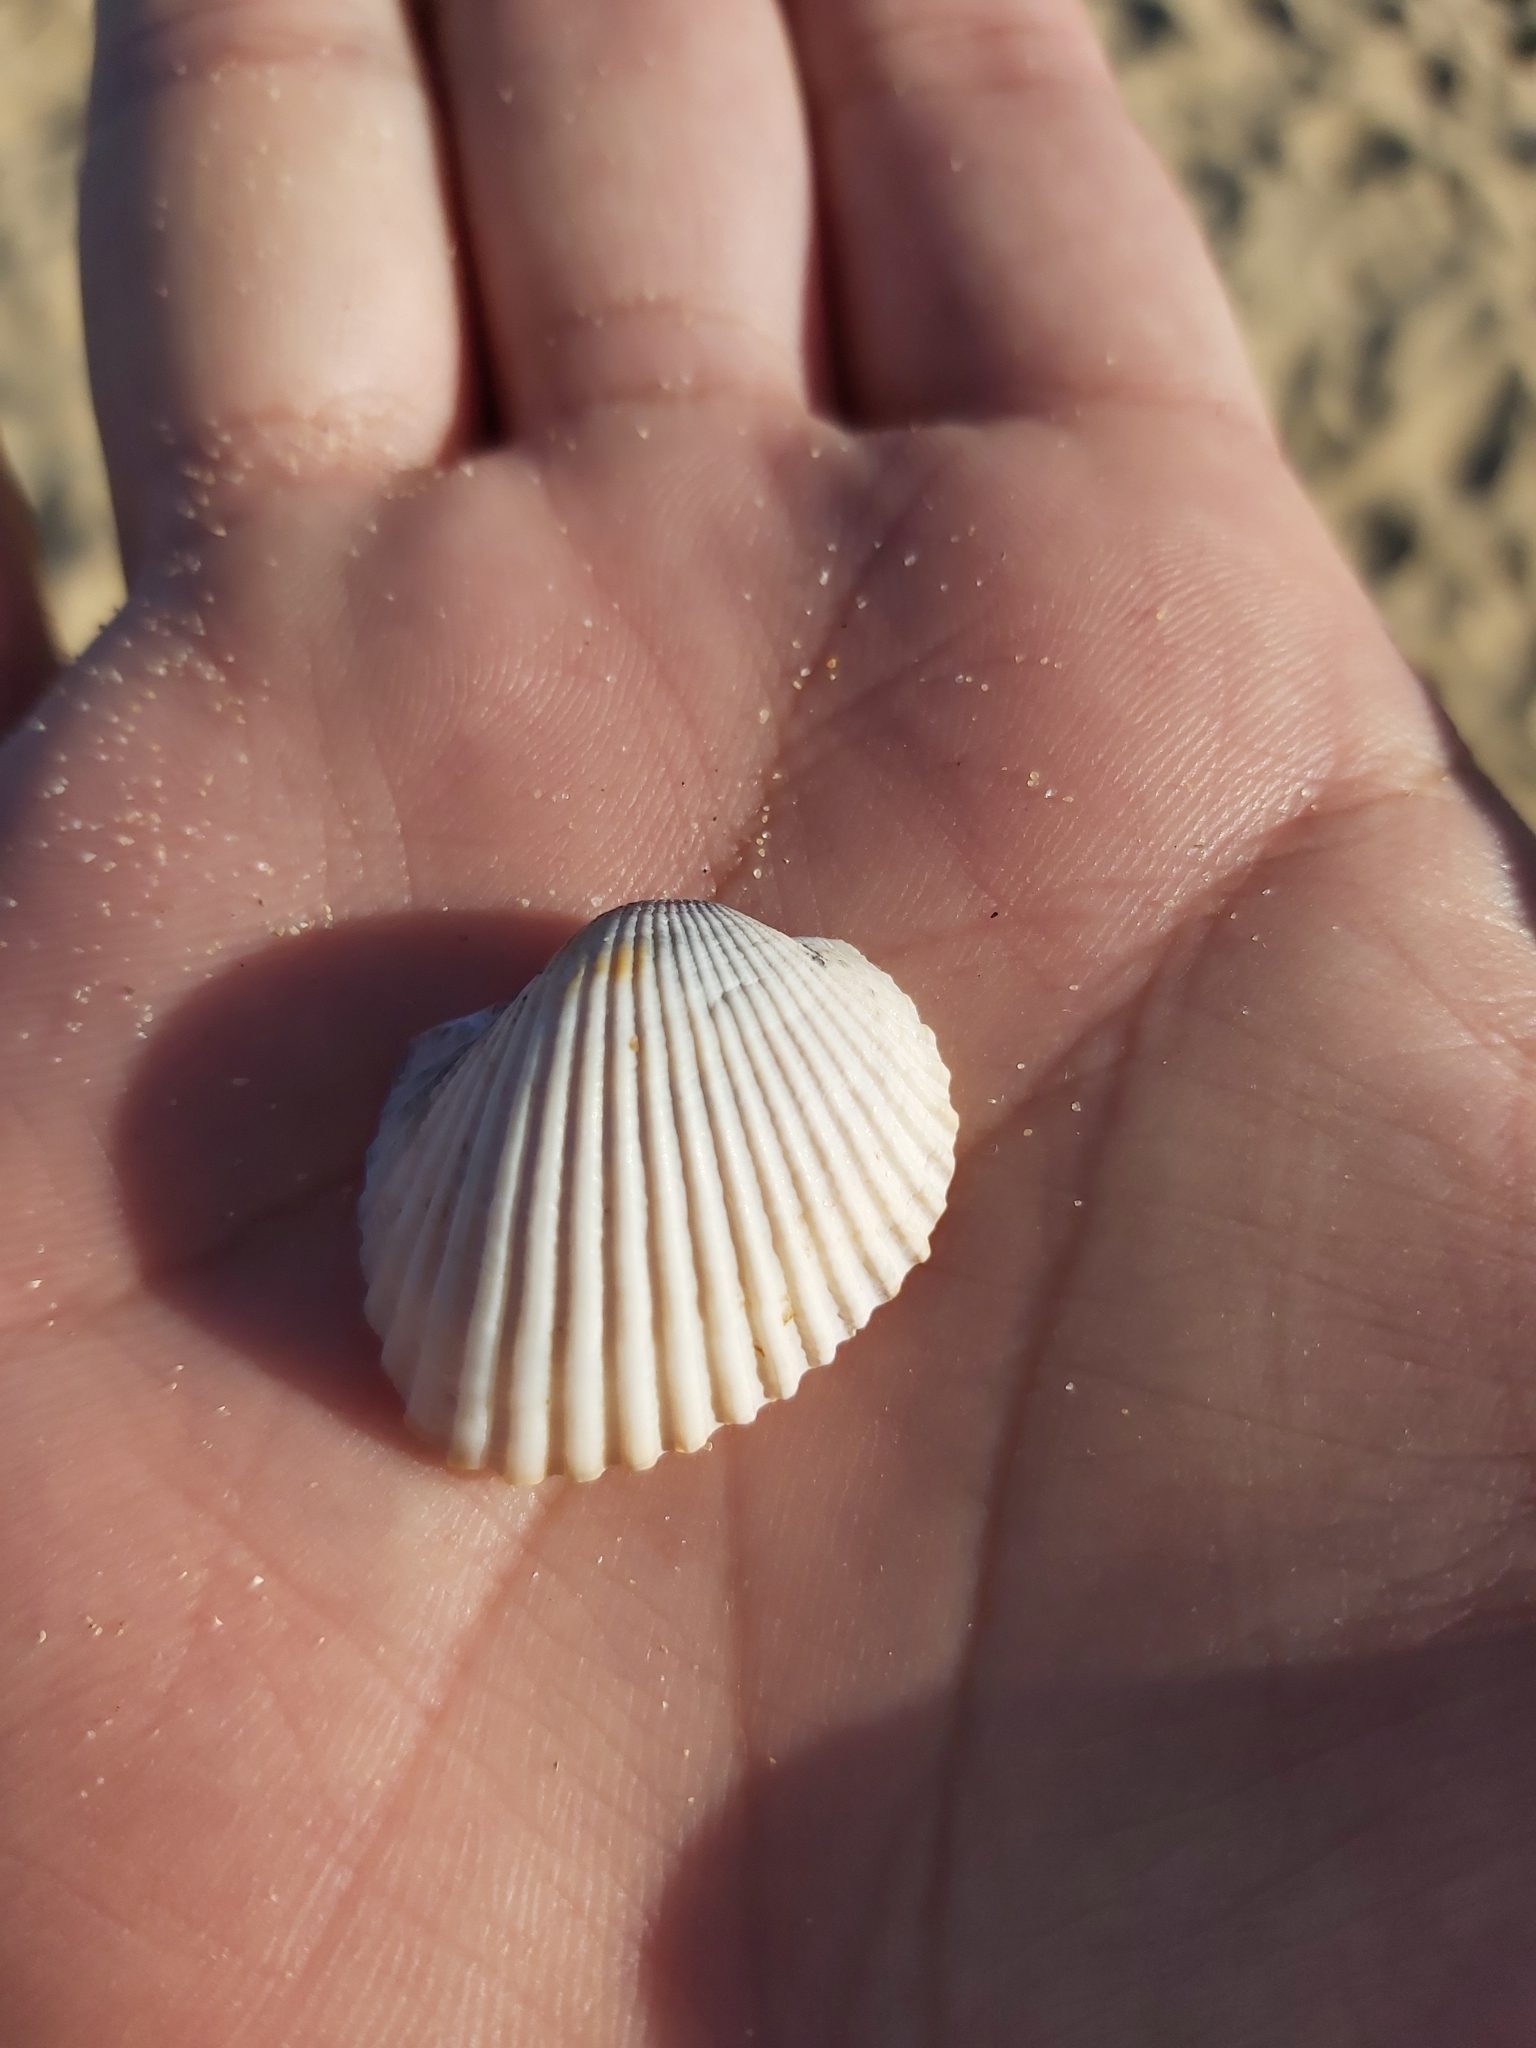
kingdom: Animalia
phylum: Mollusca
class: Bivalvia
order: Arcida
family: Arcidae
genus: Anadara
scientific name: Anadara trapezia
